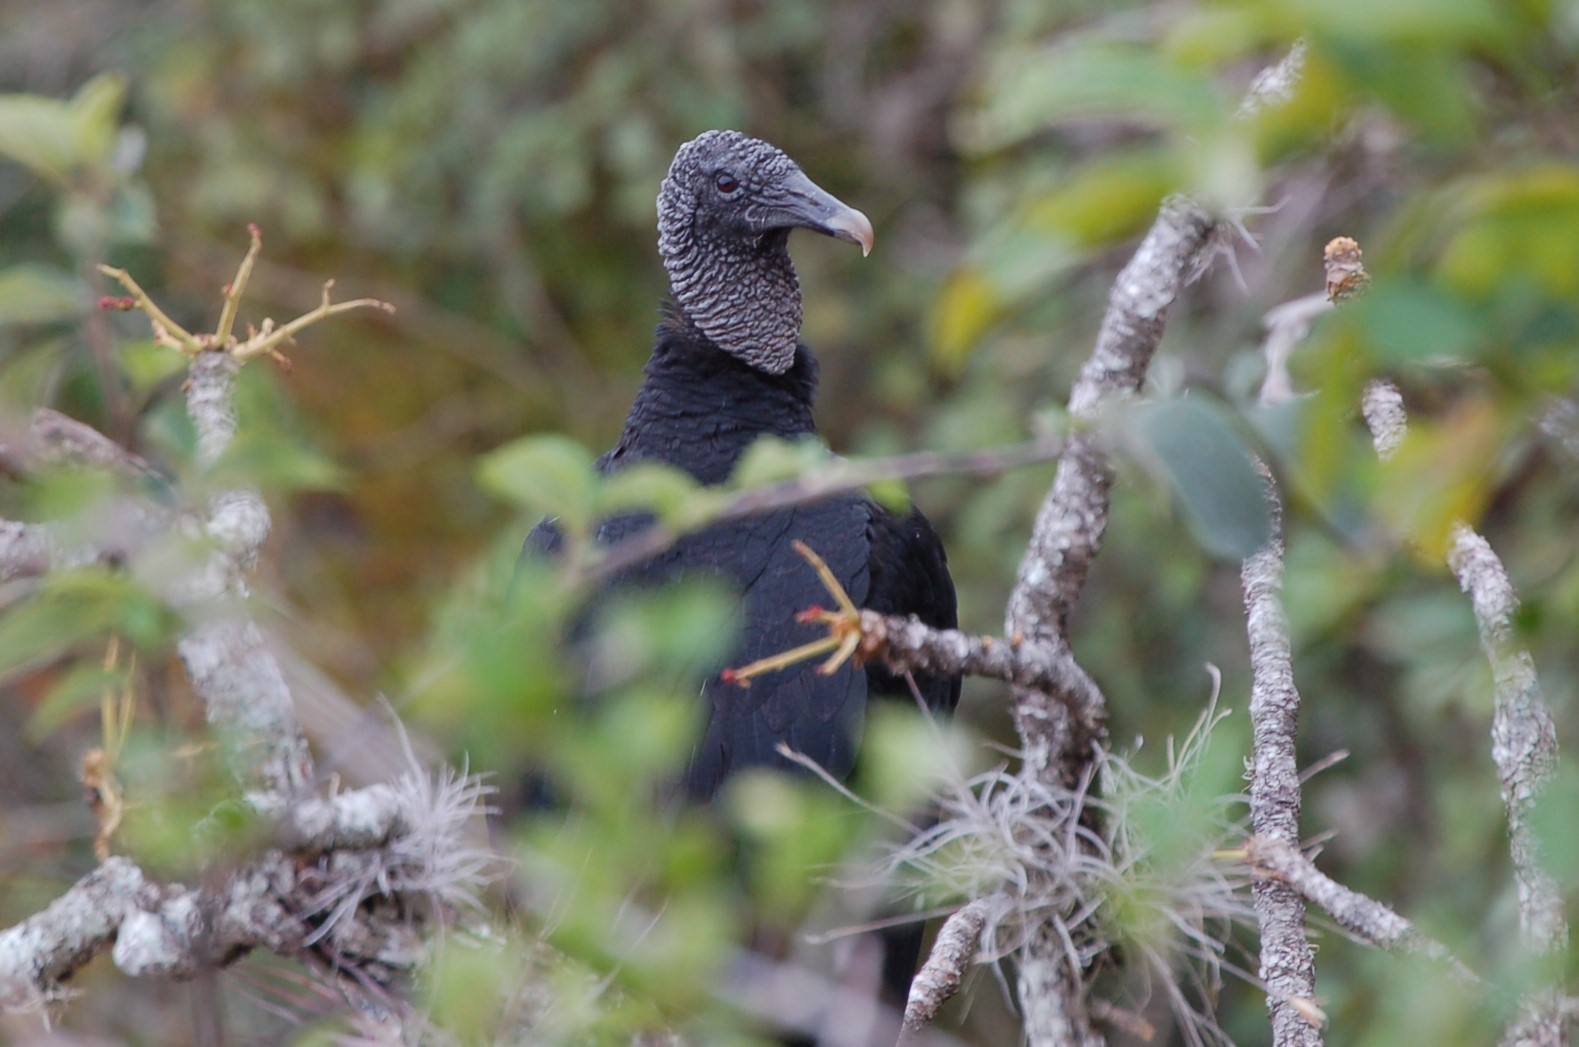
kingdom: Animalia
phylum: Chordata
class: Aves
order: Accipitriformes
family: Cathartidae
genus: Coragyps
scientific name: Coragyps atratus
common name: Black vulture
